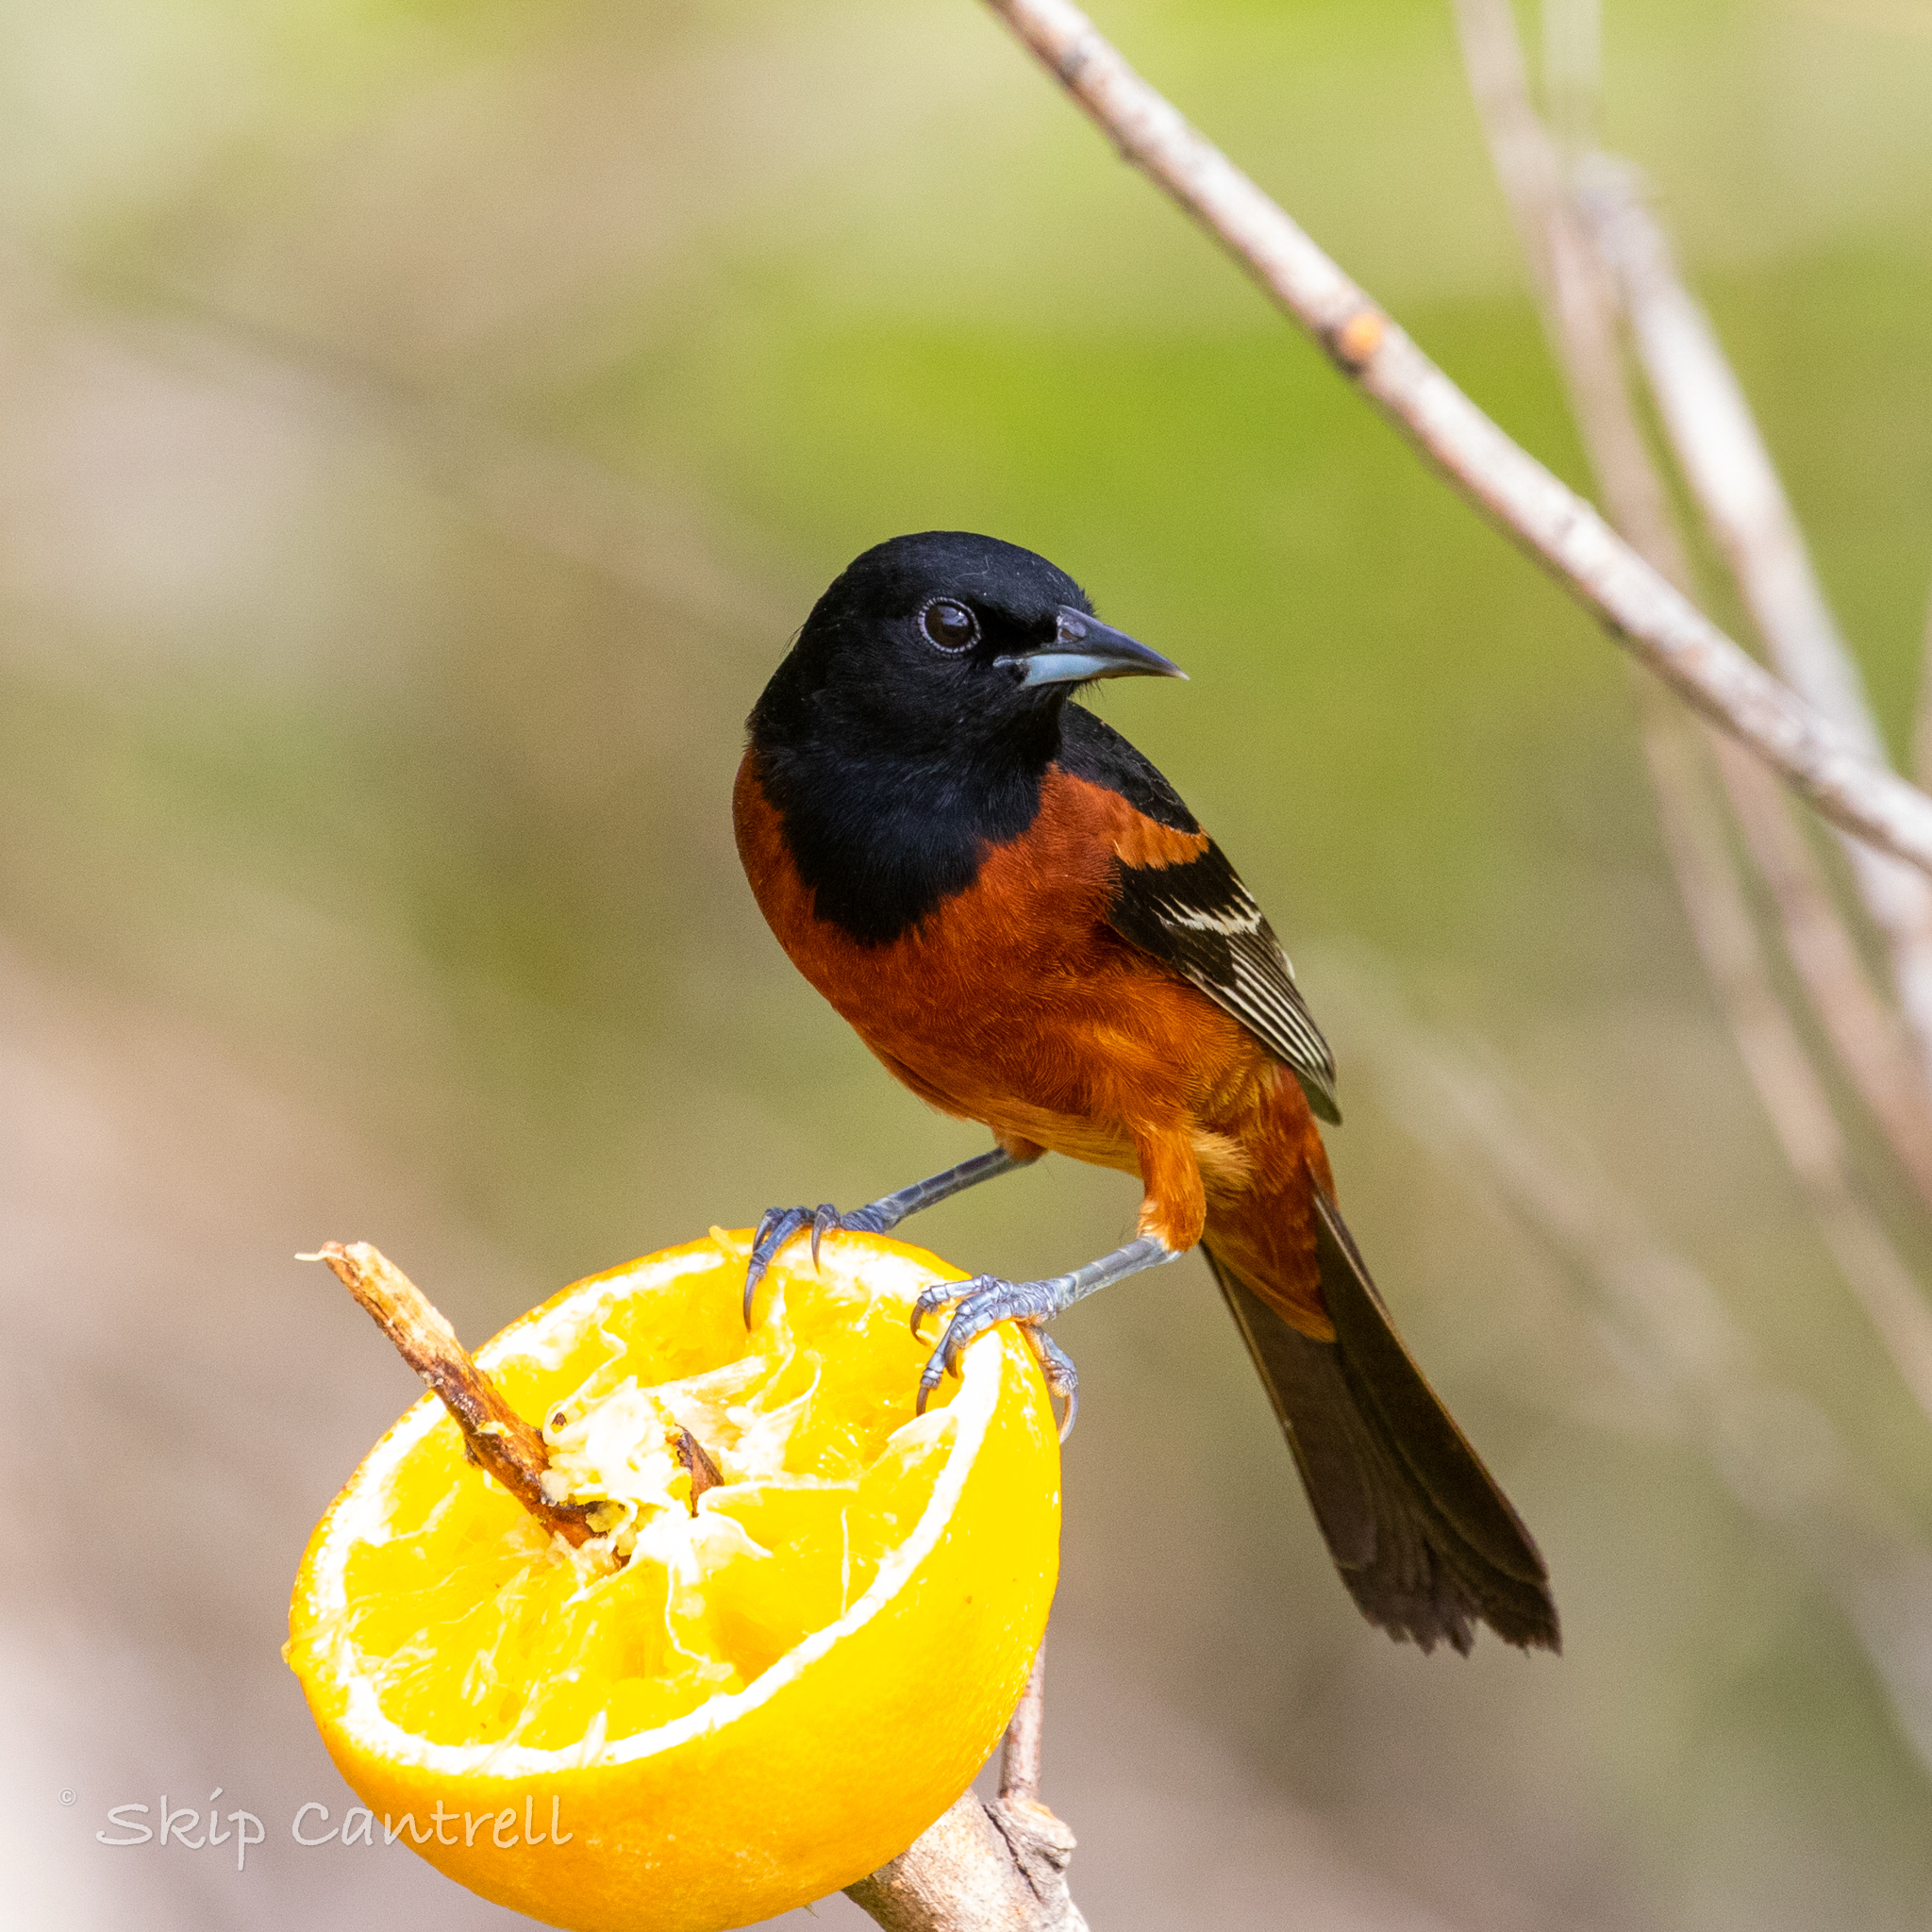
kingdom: Animalia
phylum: Chordata
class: Aves
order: Passeriformes
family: Icteridae
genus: Icterus
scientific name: Icterus spurius
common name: Orchard oriole
